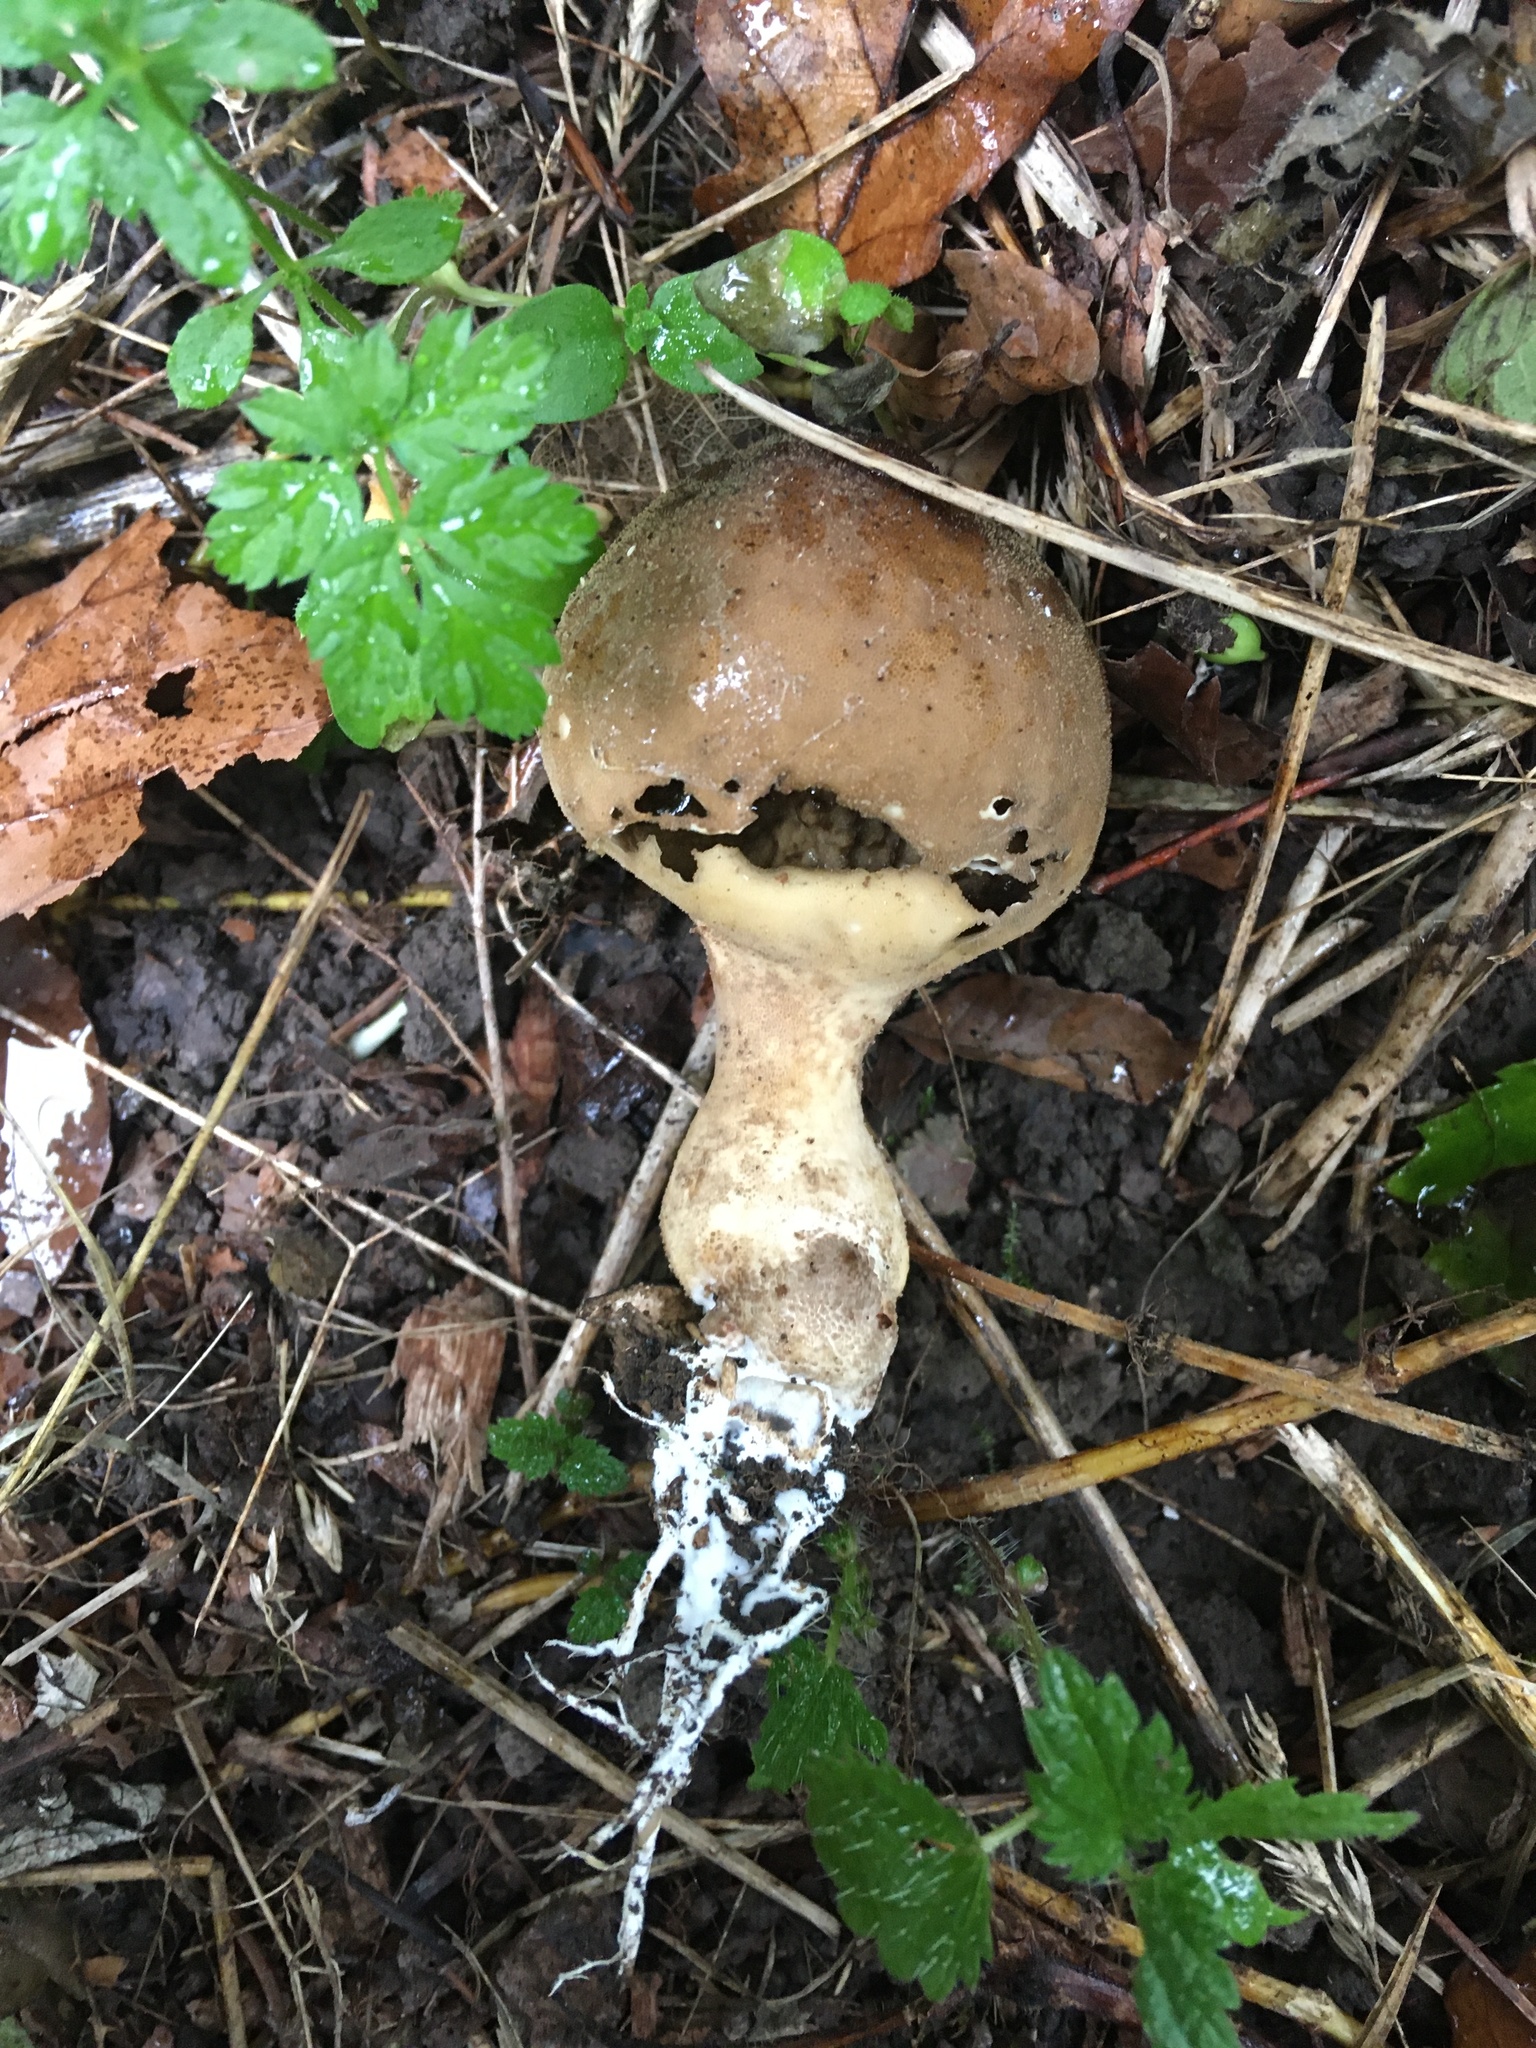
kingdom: Fungi
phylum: Basidiomycota
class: Agaricomycetes
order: Agaricales
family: Lycoperdaceae
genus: Apioperdon
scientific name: Apioperdon pyriforme
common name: Pear-shaped puffball
